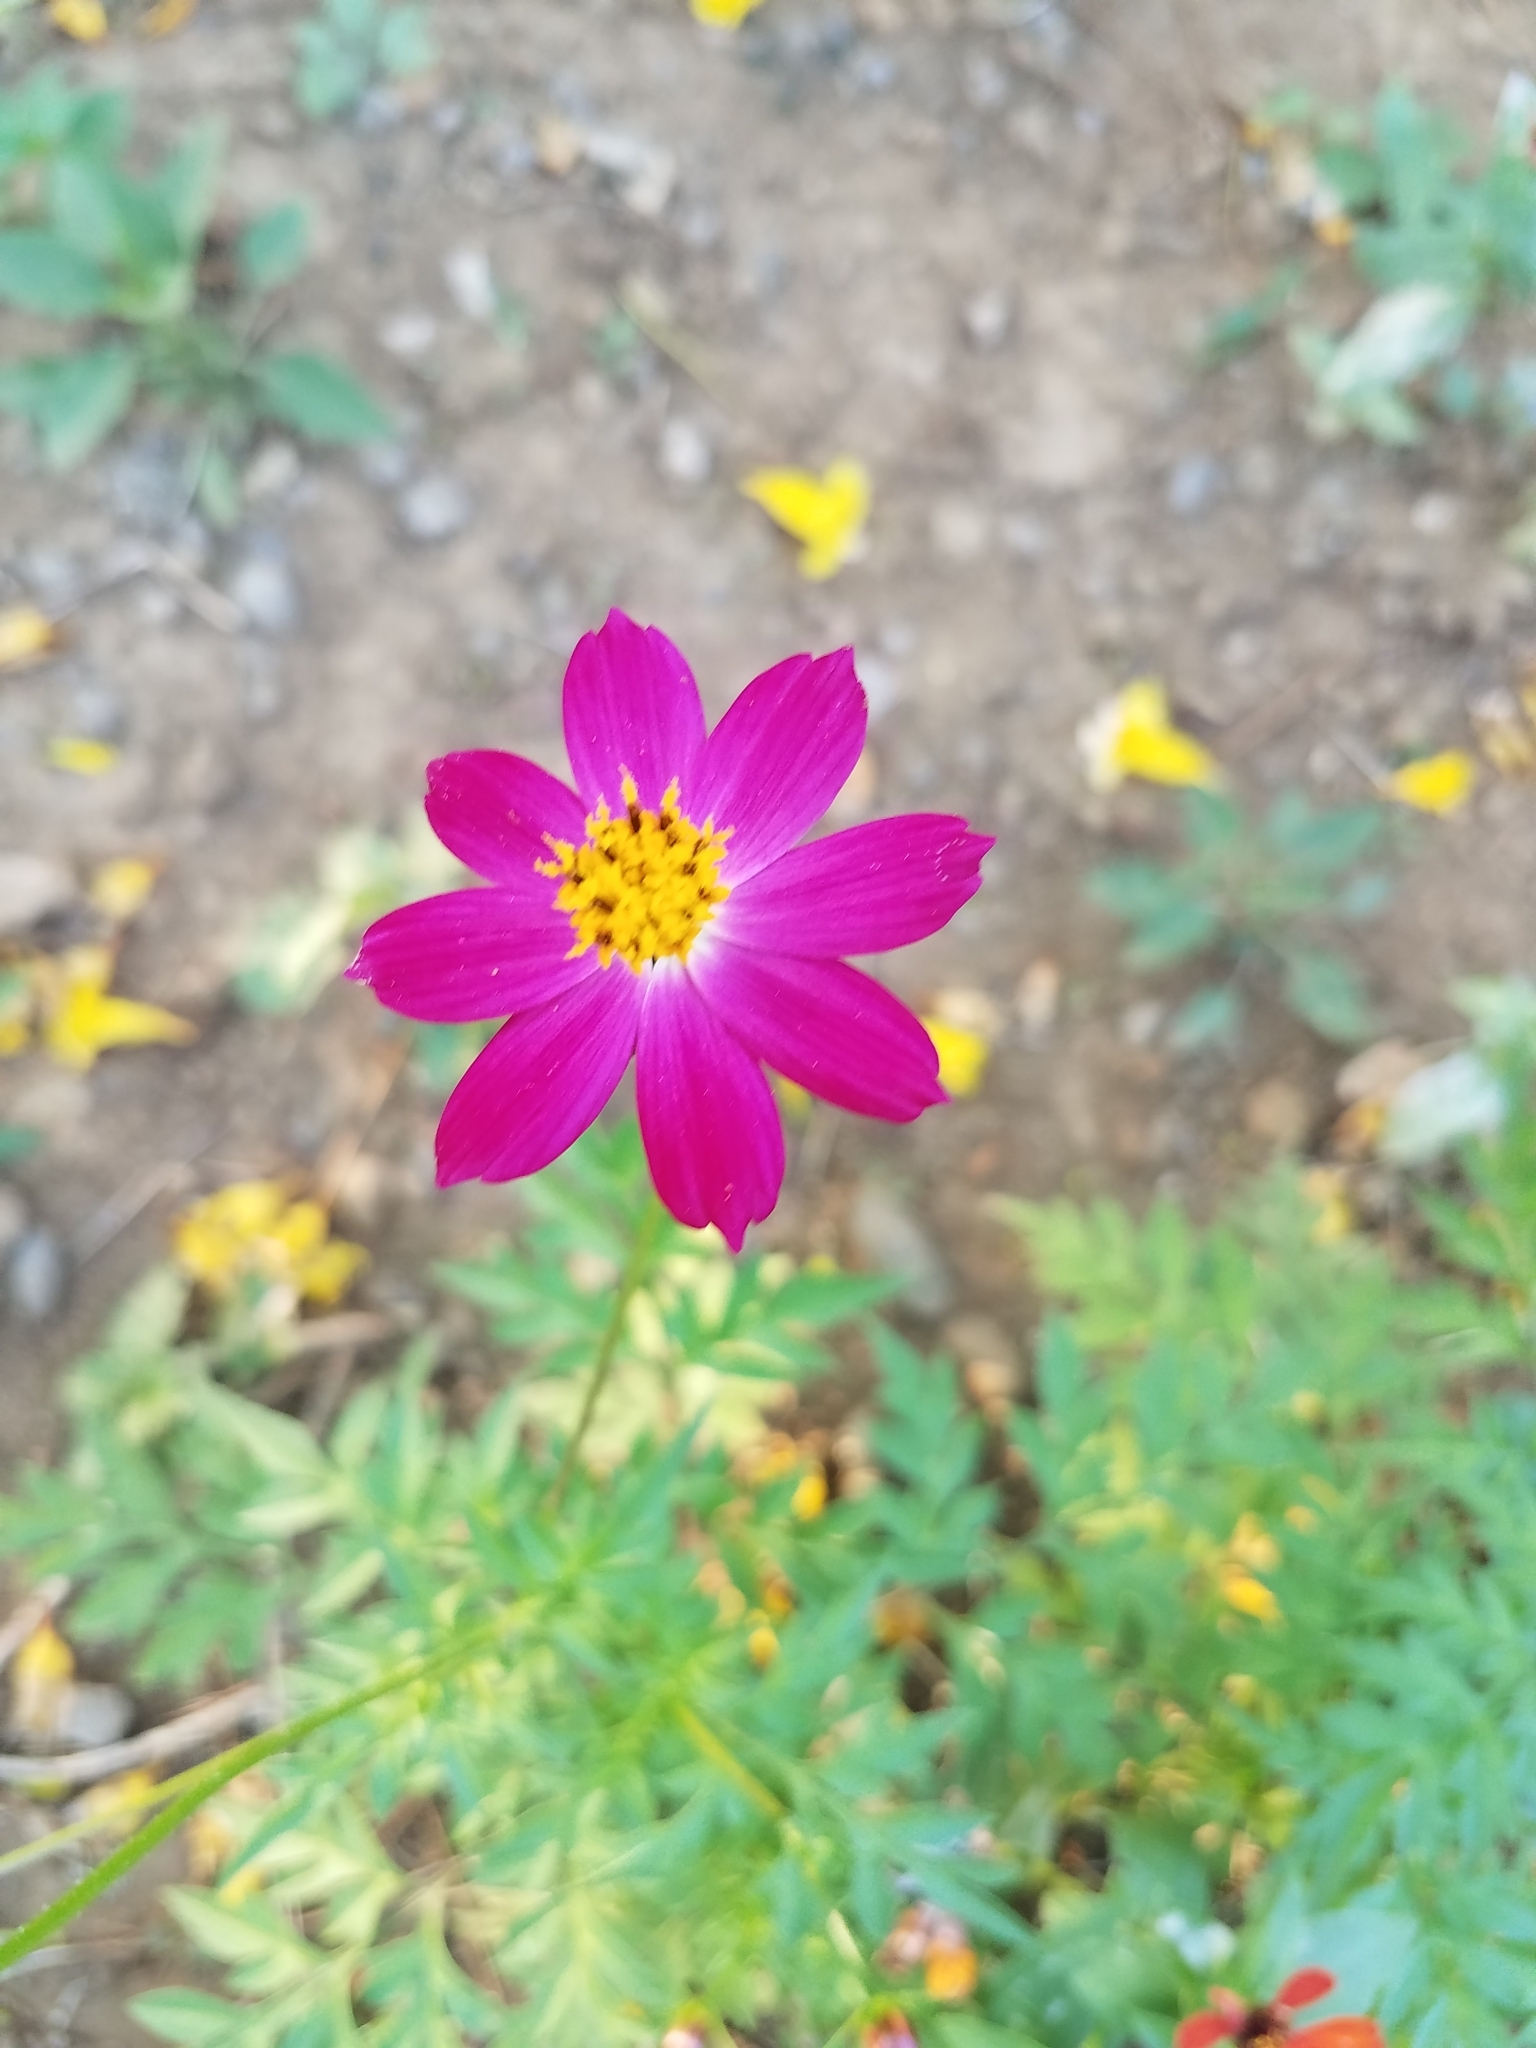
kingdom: Plantae
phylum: Tracheophyta
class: Magnoliopsida
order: Asterales
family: Asteraceae
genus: Cosmos
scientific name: Cosmos caudatus
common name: Wild cosmos
